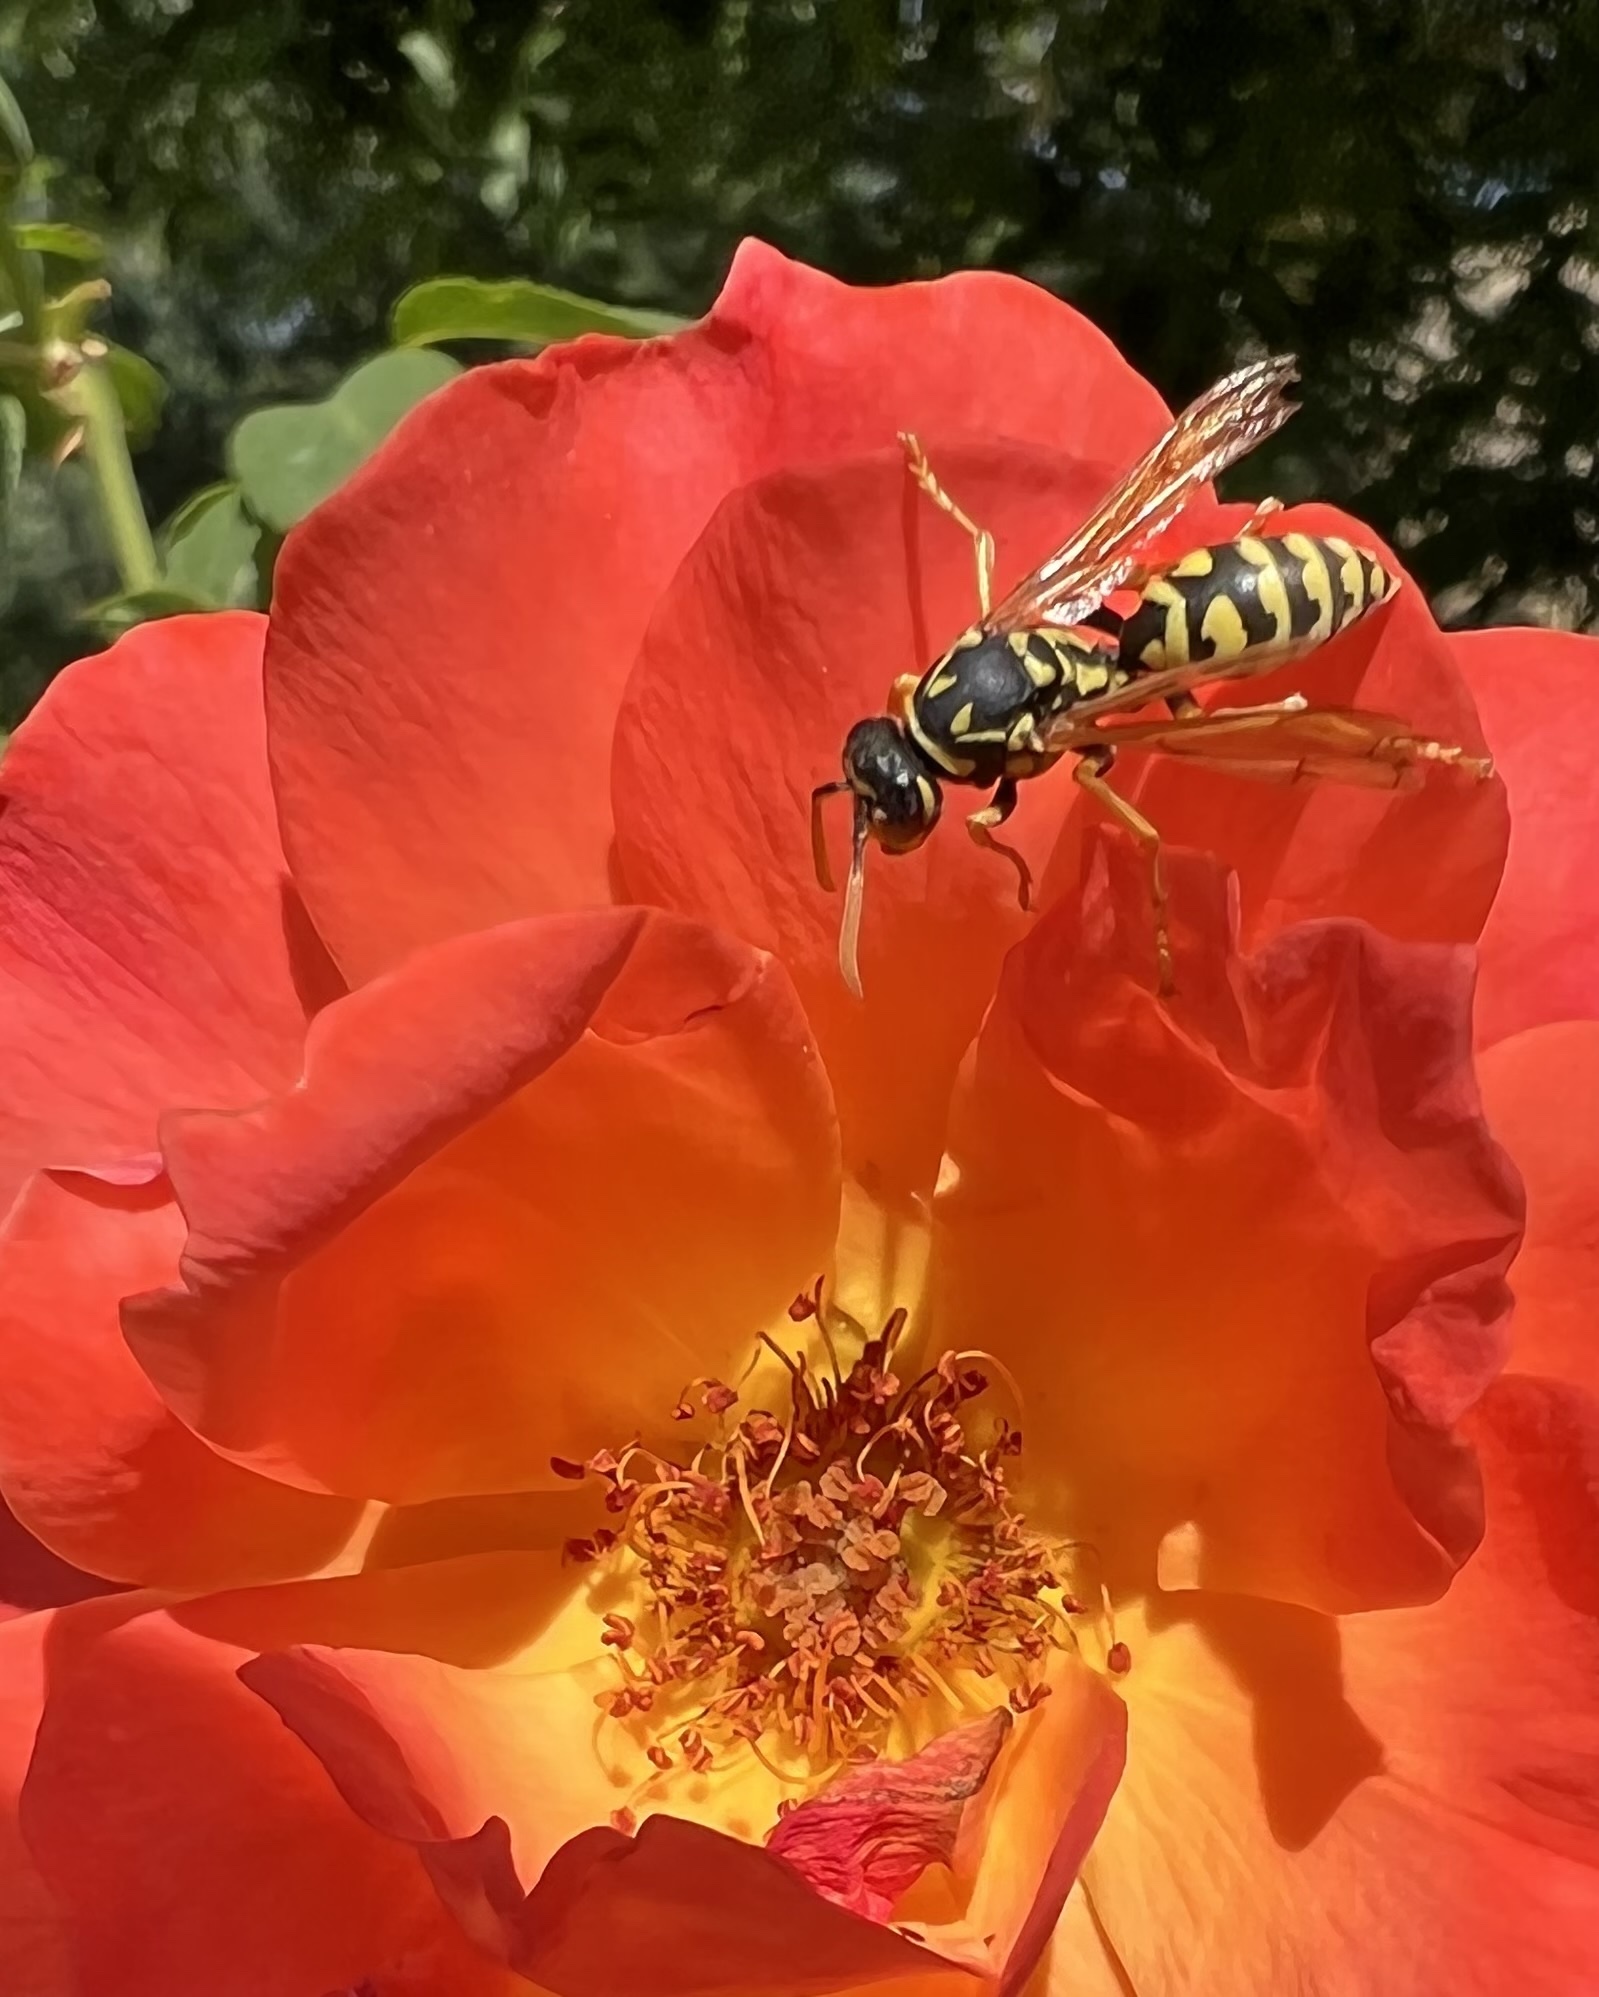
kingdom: Animalia
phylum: Arthropoda
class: Insecta
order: Hymenoptera
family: Eumenidae
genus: Polistes
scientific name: Polistes dominula
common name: Paper wasp
